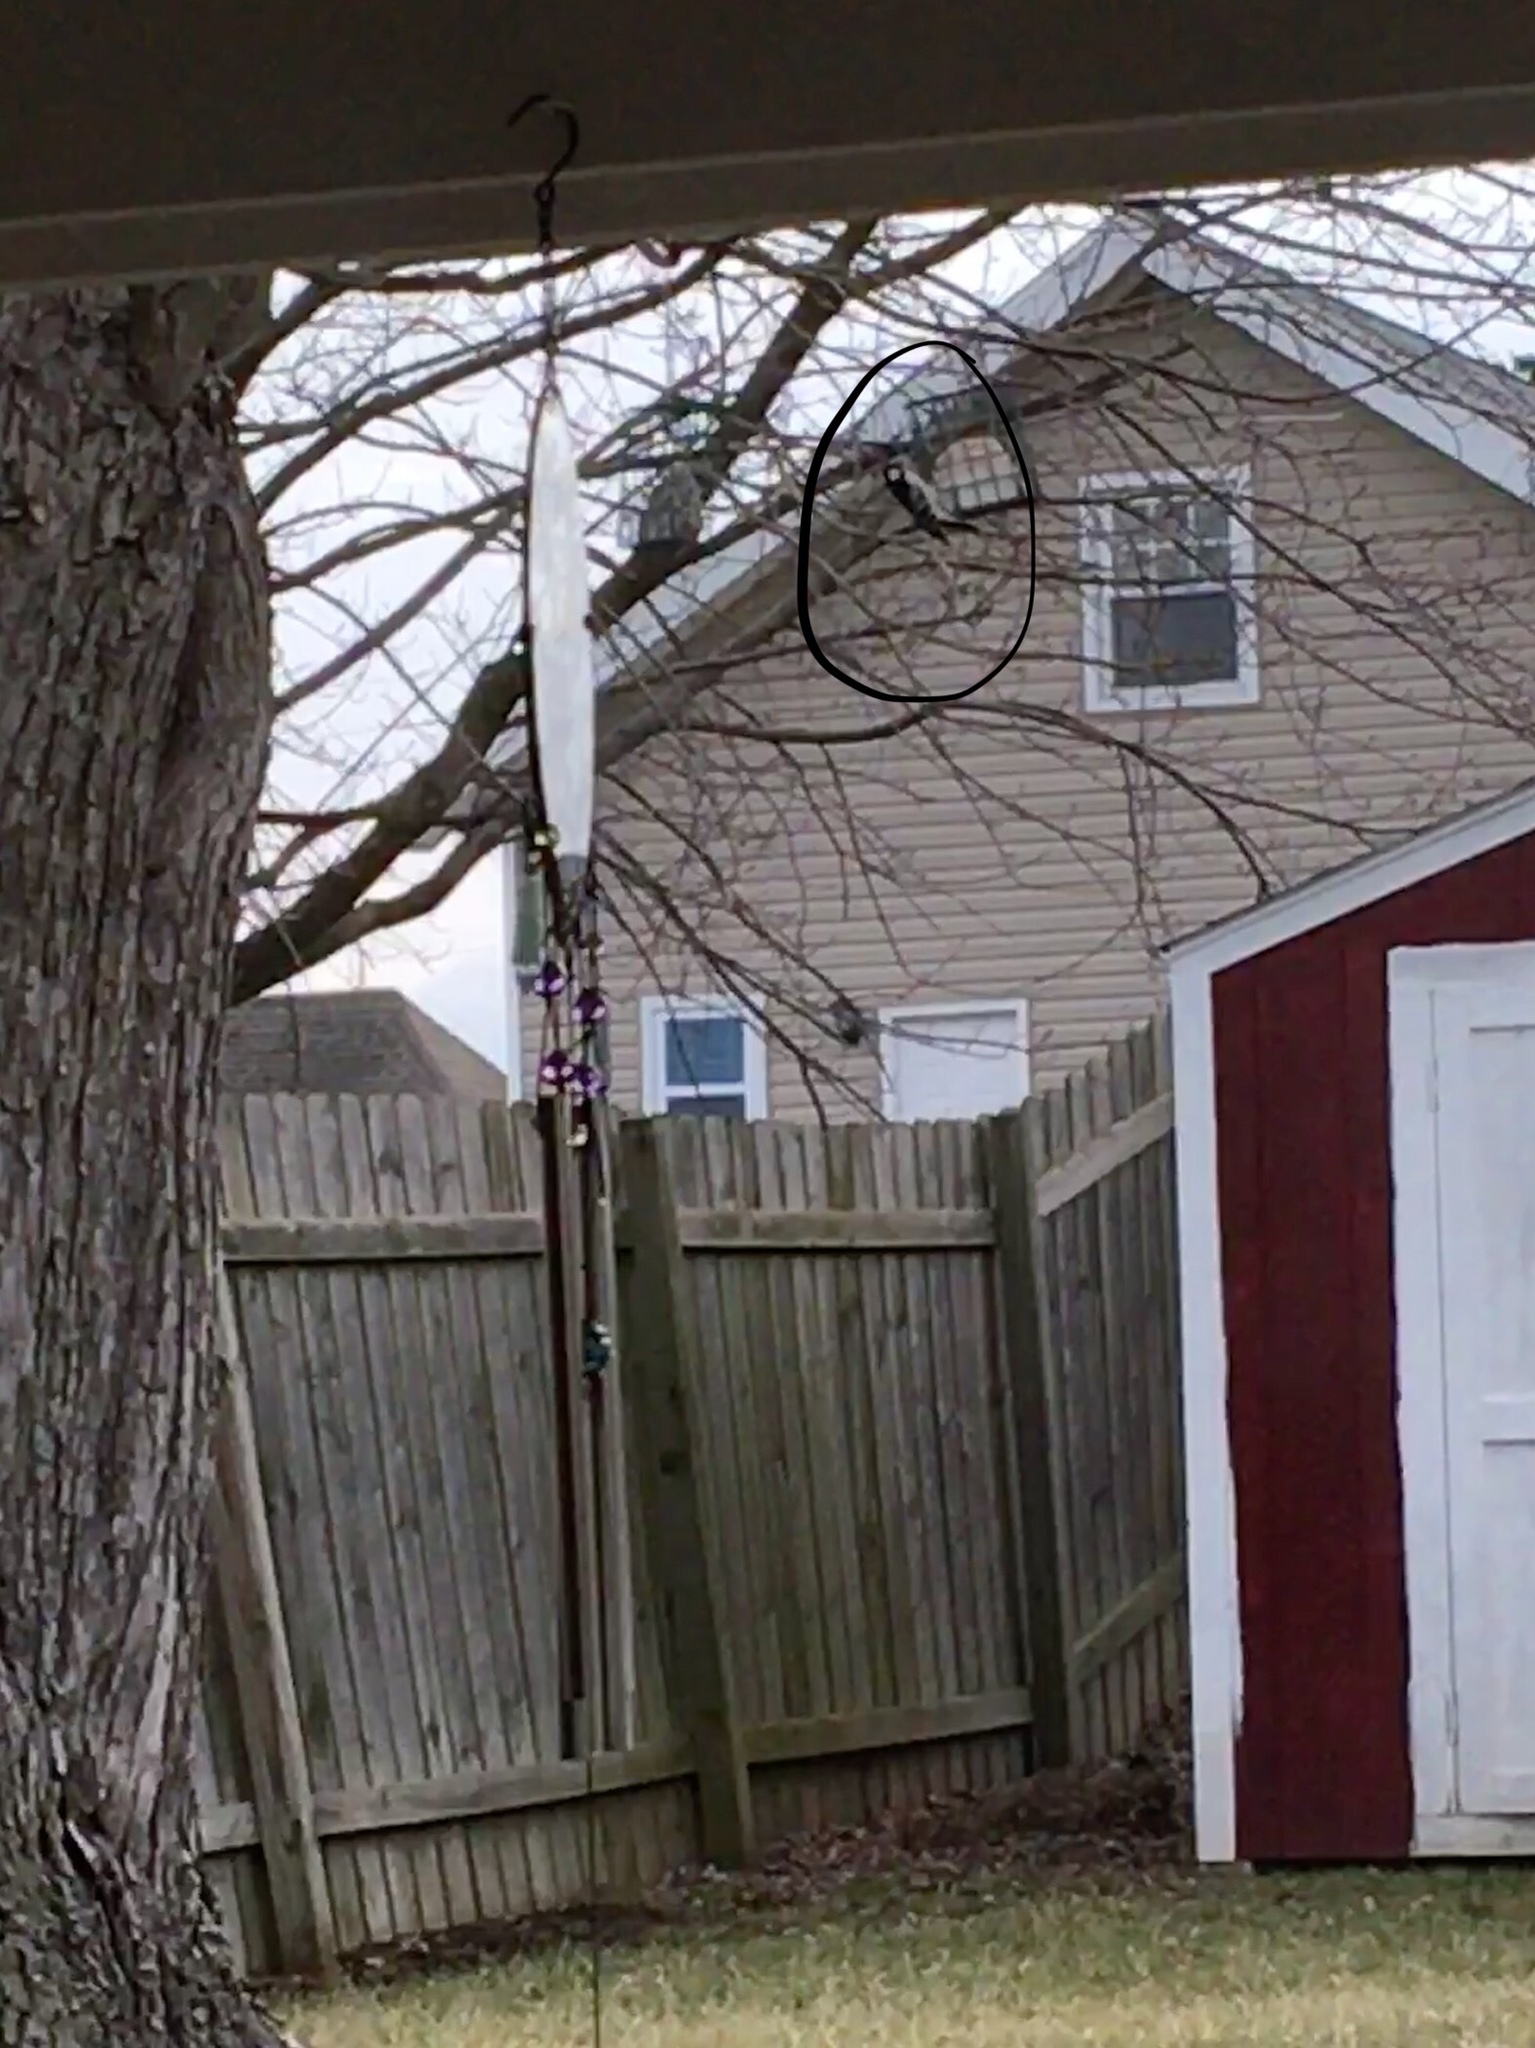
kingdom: Animalia
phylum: Chordata
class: Aves
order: Piciformes
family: Picidae
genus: Dryobates
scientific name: Dryobates pubescens
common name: Downy woodpecker
